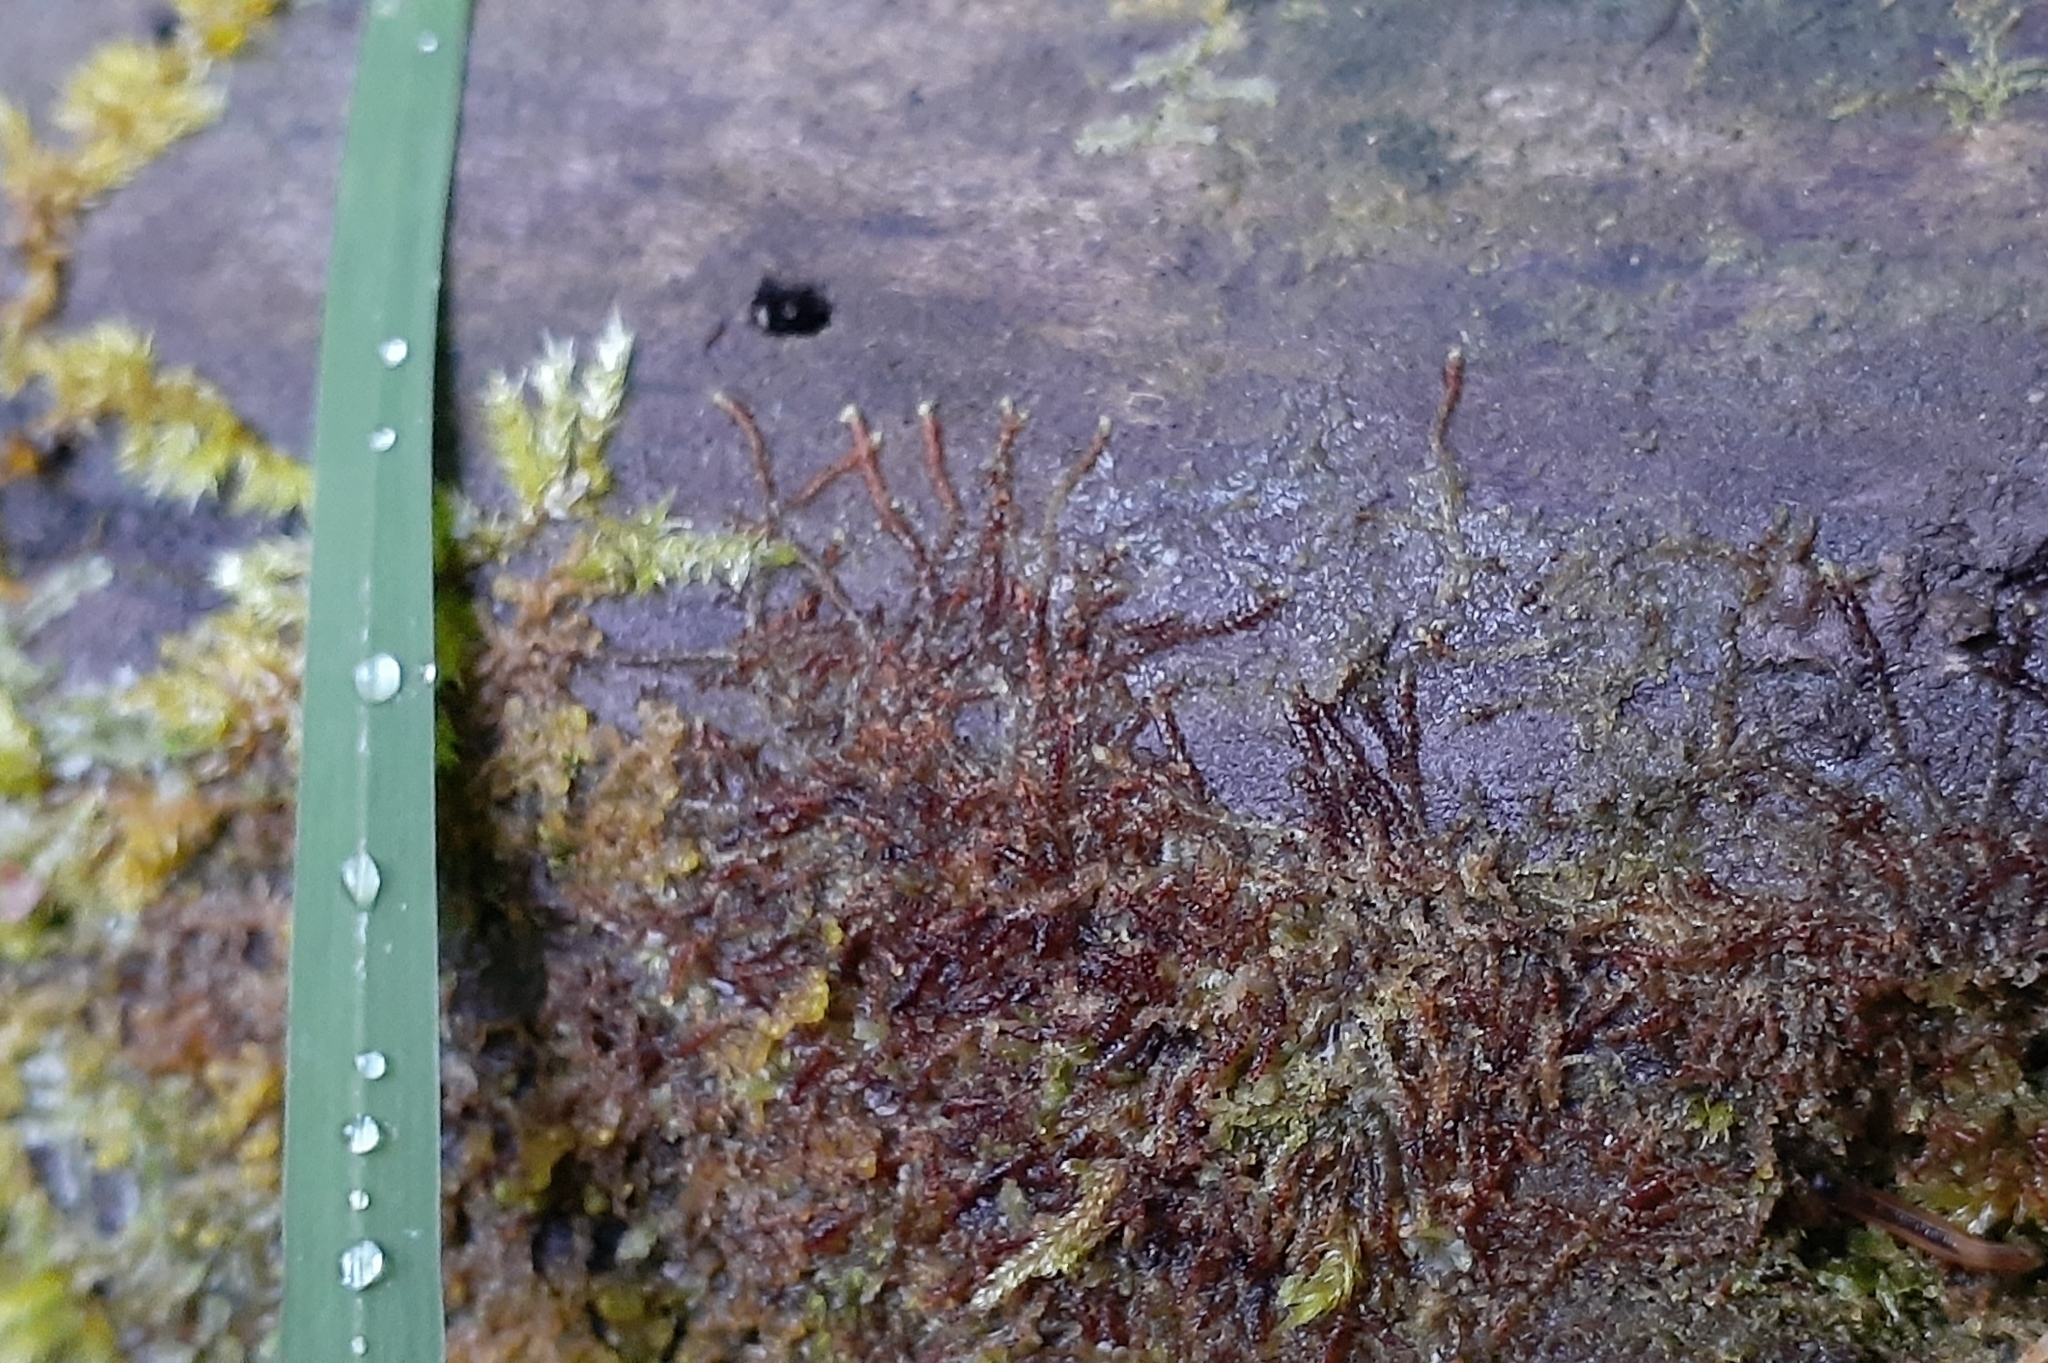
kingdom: Plantae
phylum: Marchantiophyta
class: Jungermanniopsida
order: Jungermanniales
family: Cephaloziaceae
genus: Nowellia
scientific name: Nowellia curvifolia
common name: Wood rustwort
